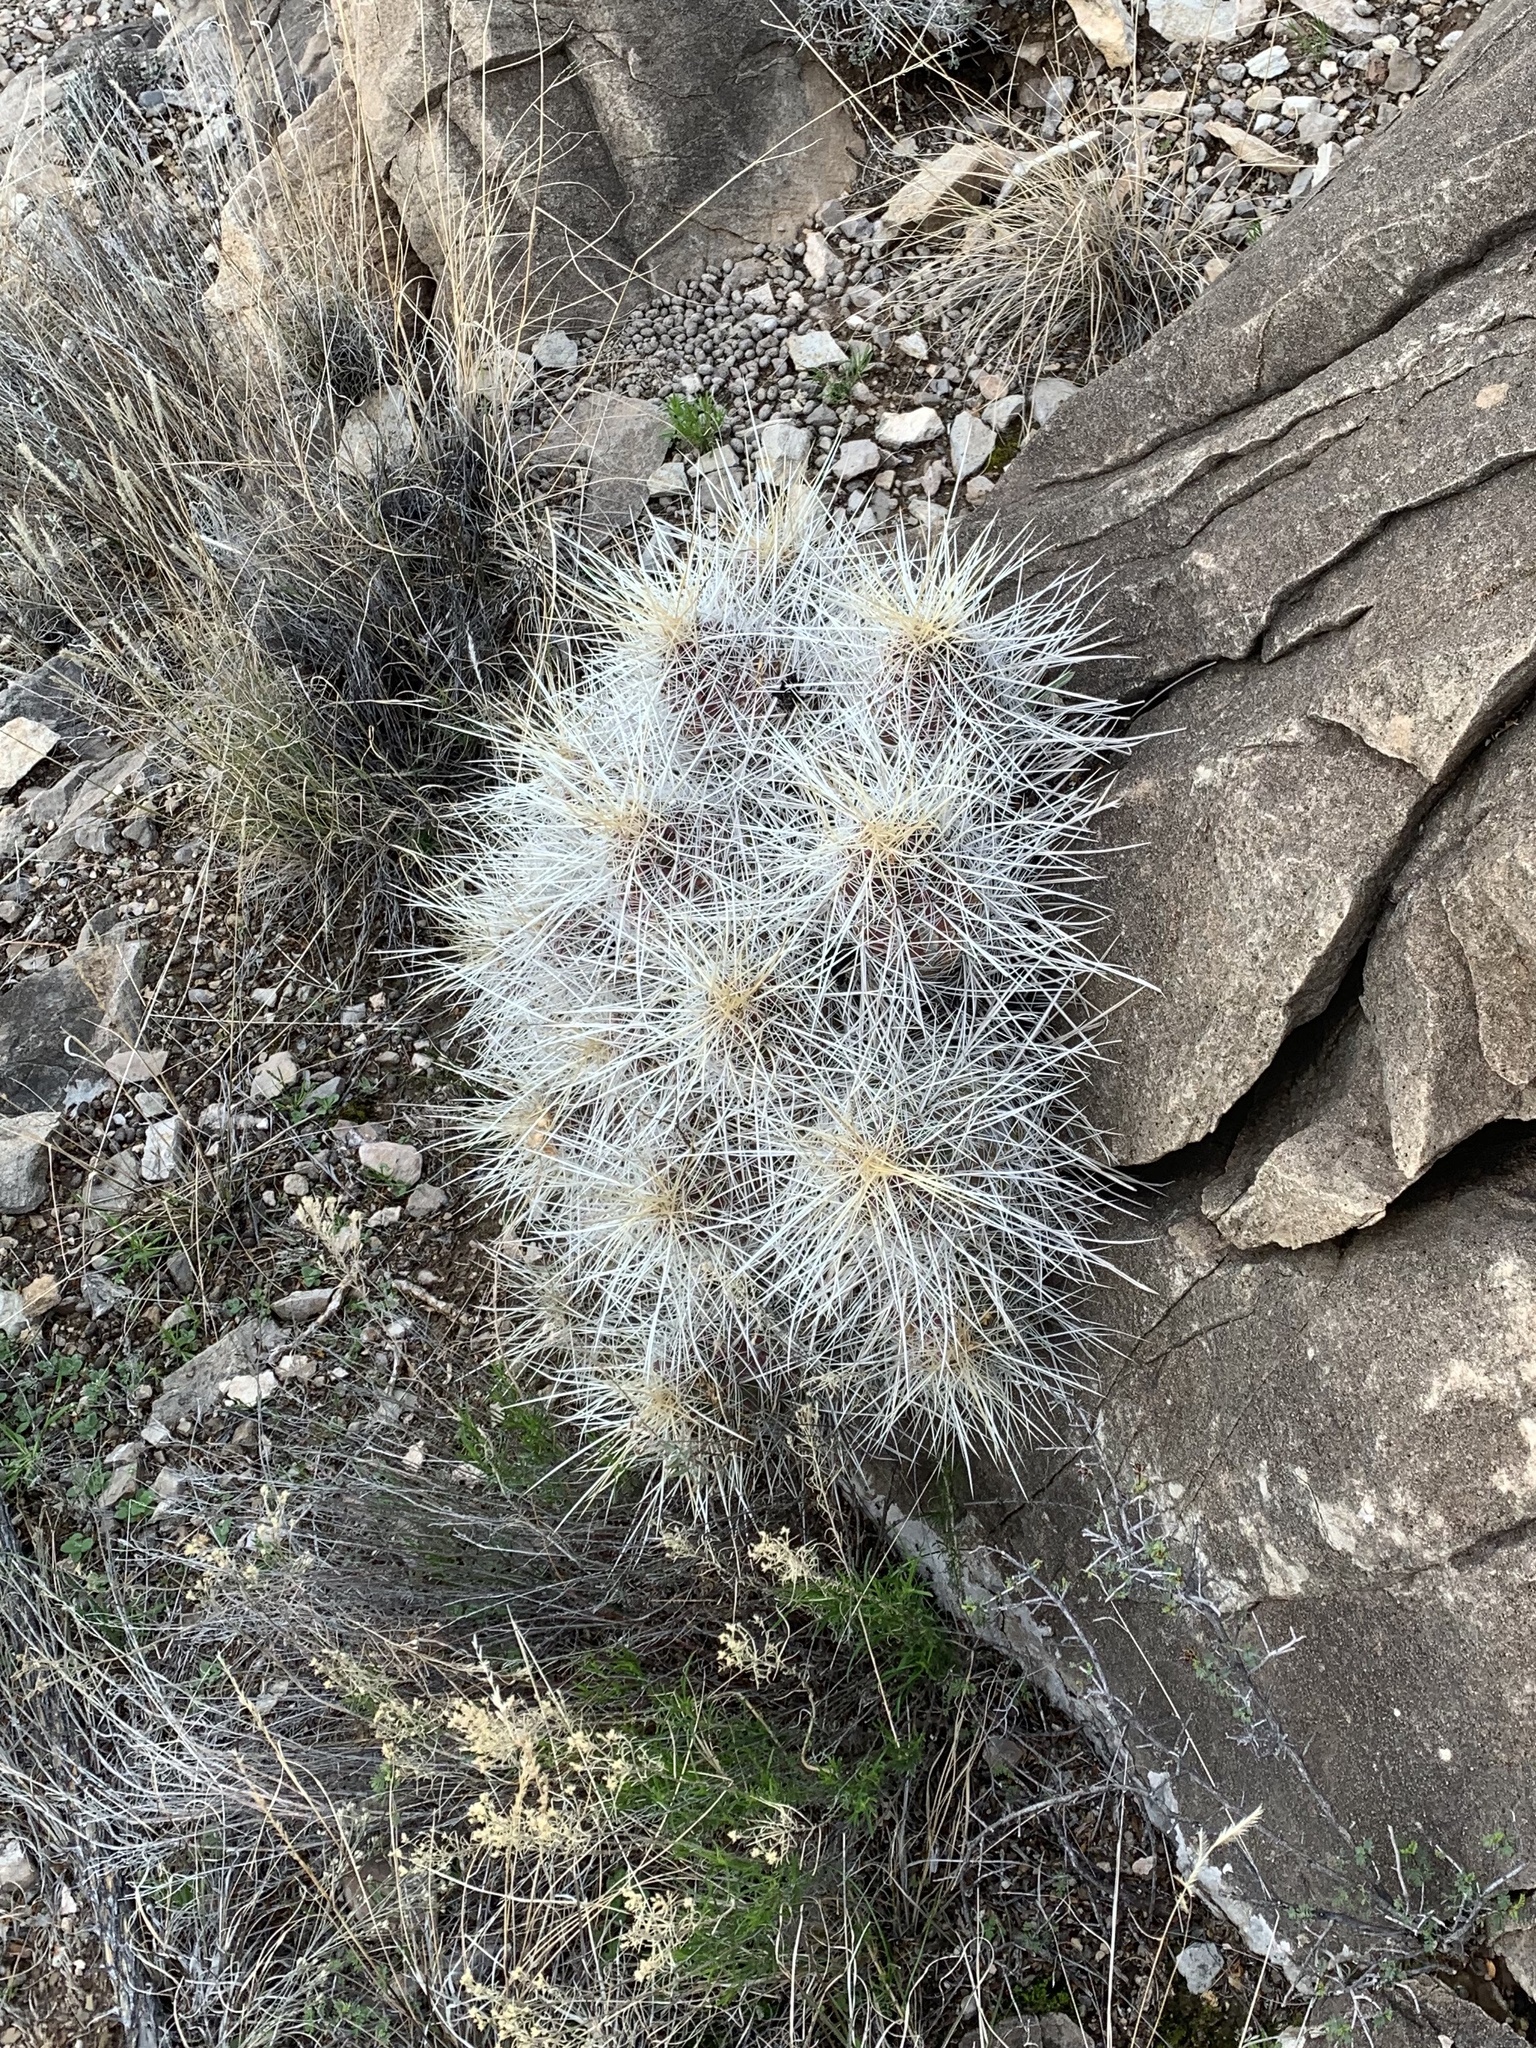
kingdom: Plantae
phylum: Tracheophyta
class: Magnoliopsida
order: Caryophyllales
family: Cactaceae
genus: Echinocereus
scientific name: Echinocereus stramineus
